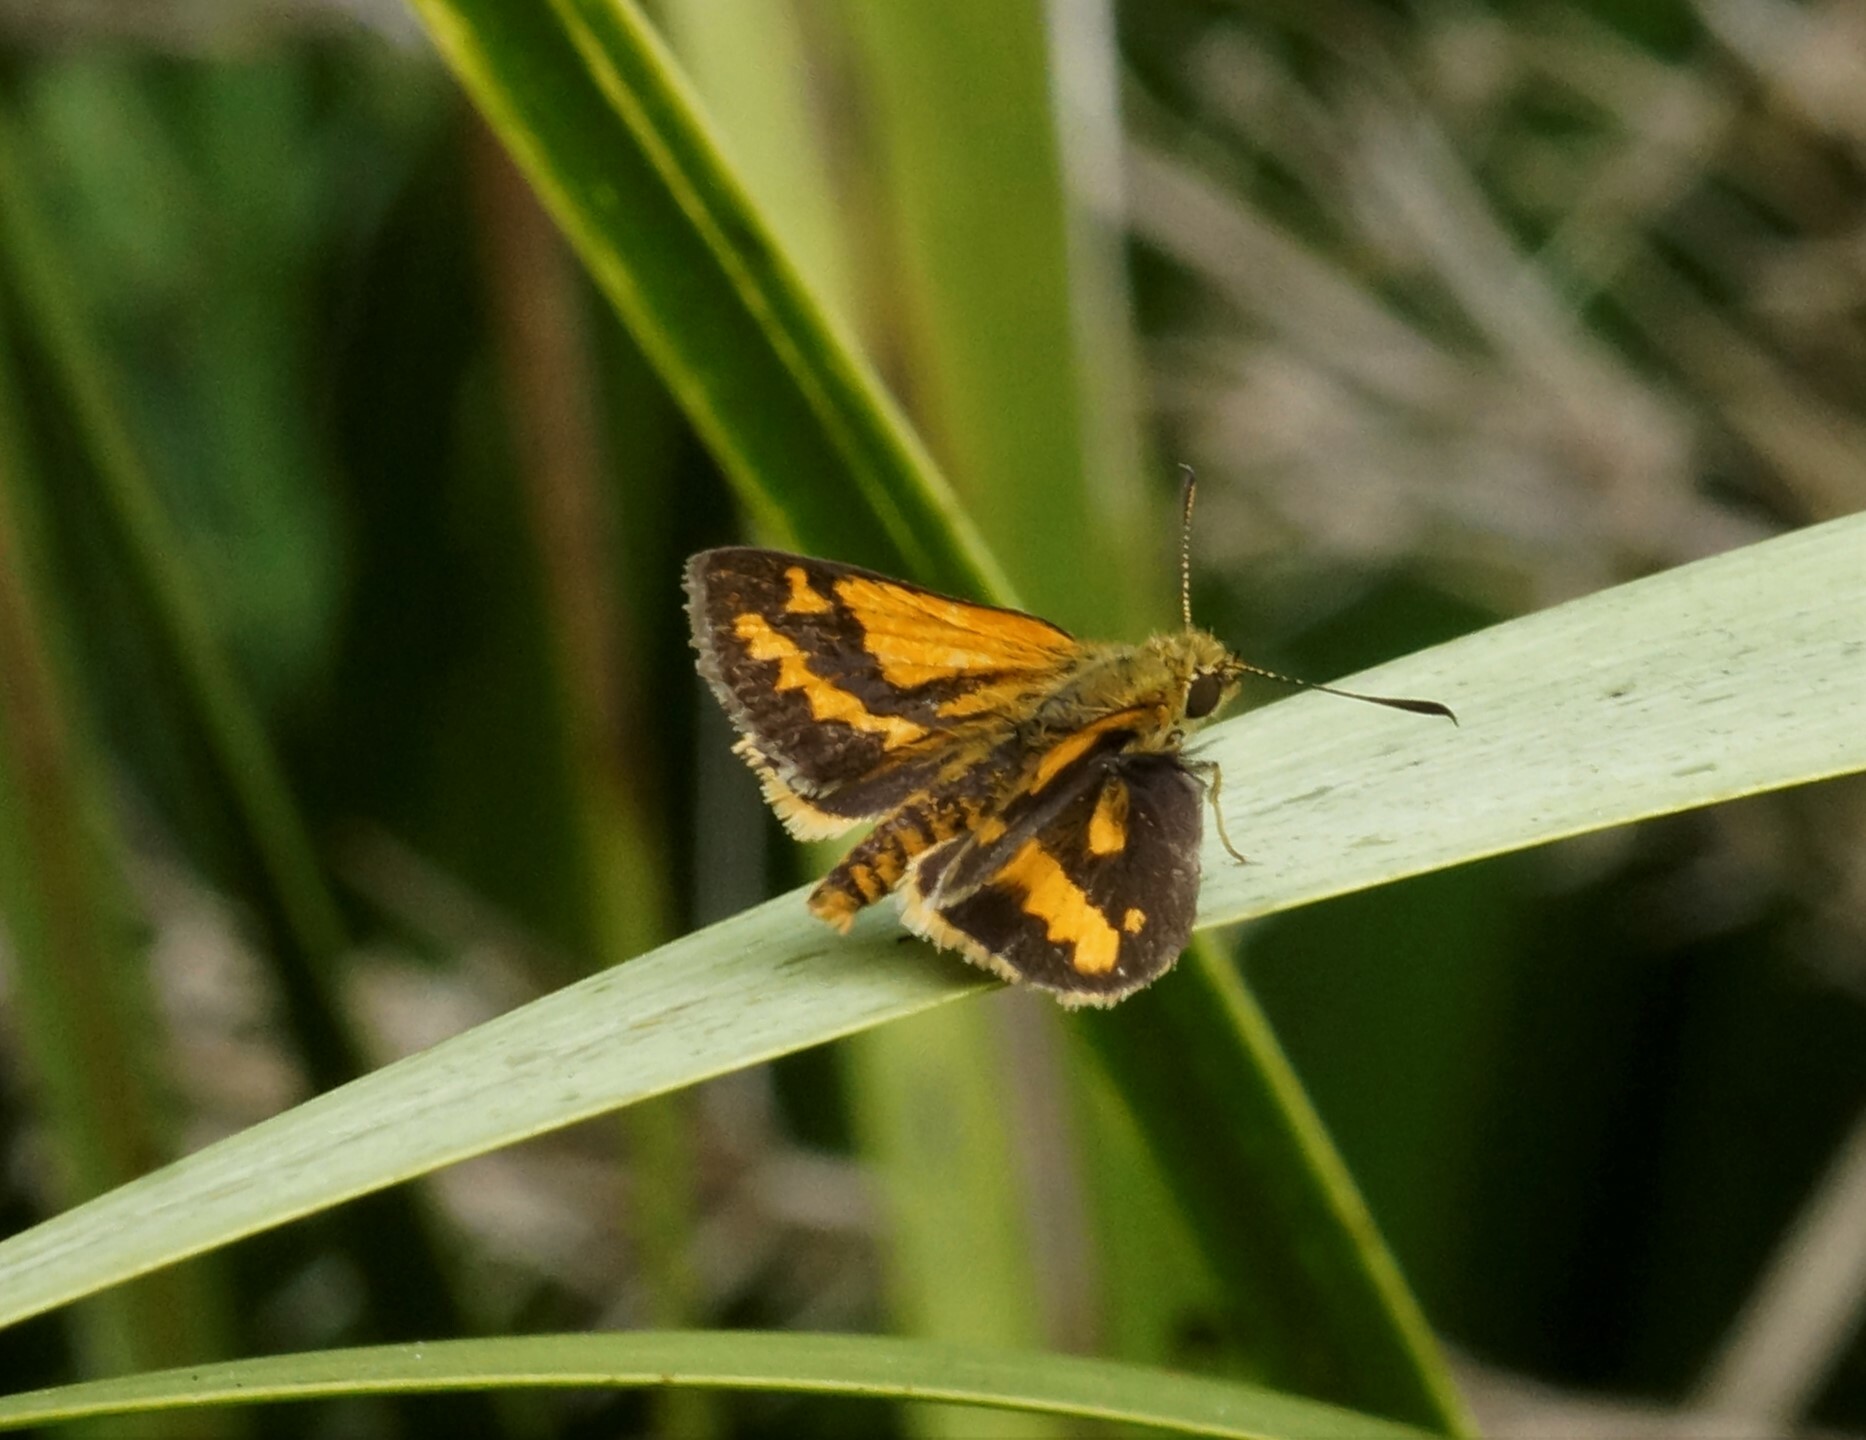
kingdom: Animalia
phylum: Arthropoda
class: Insecta
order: Lepidoptera
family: Hesperiidae
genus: Suniana
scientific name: Suniana sunias
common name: Wide-brand grass-dart
